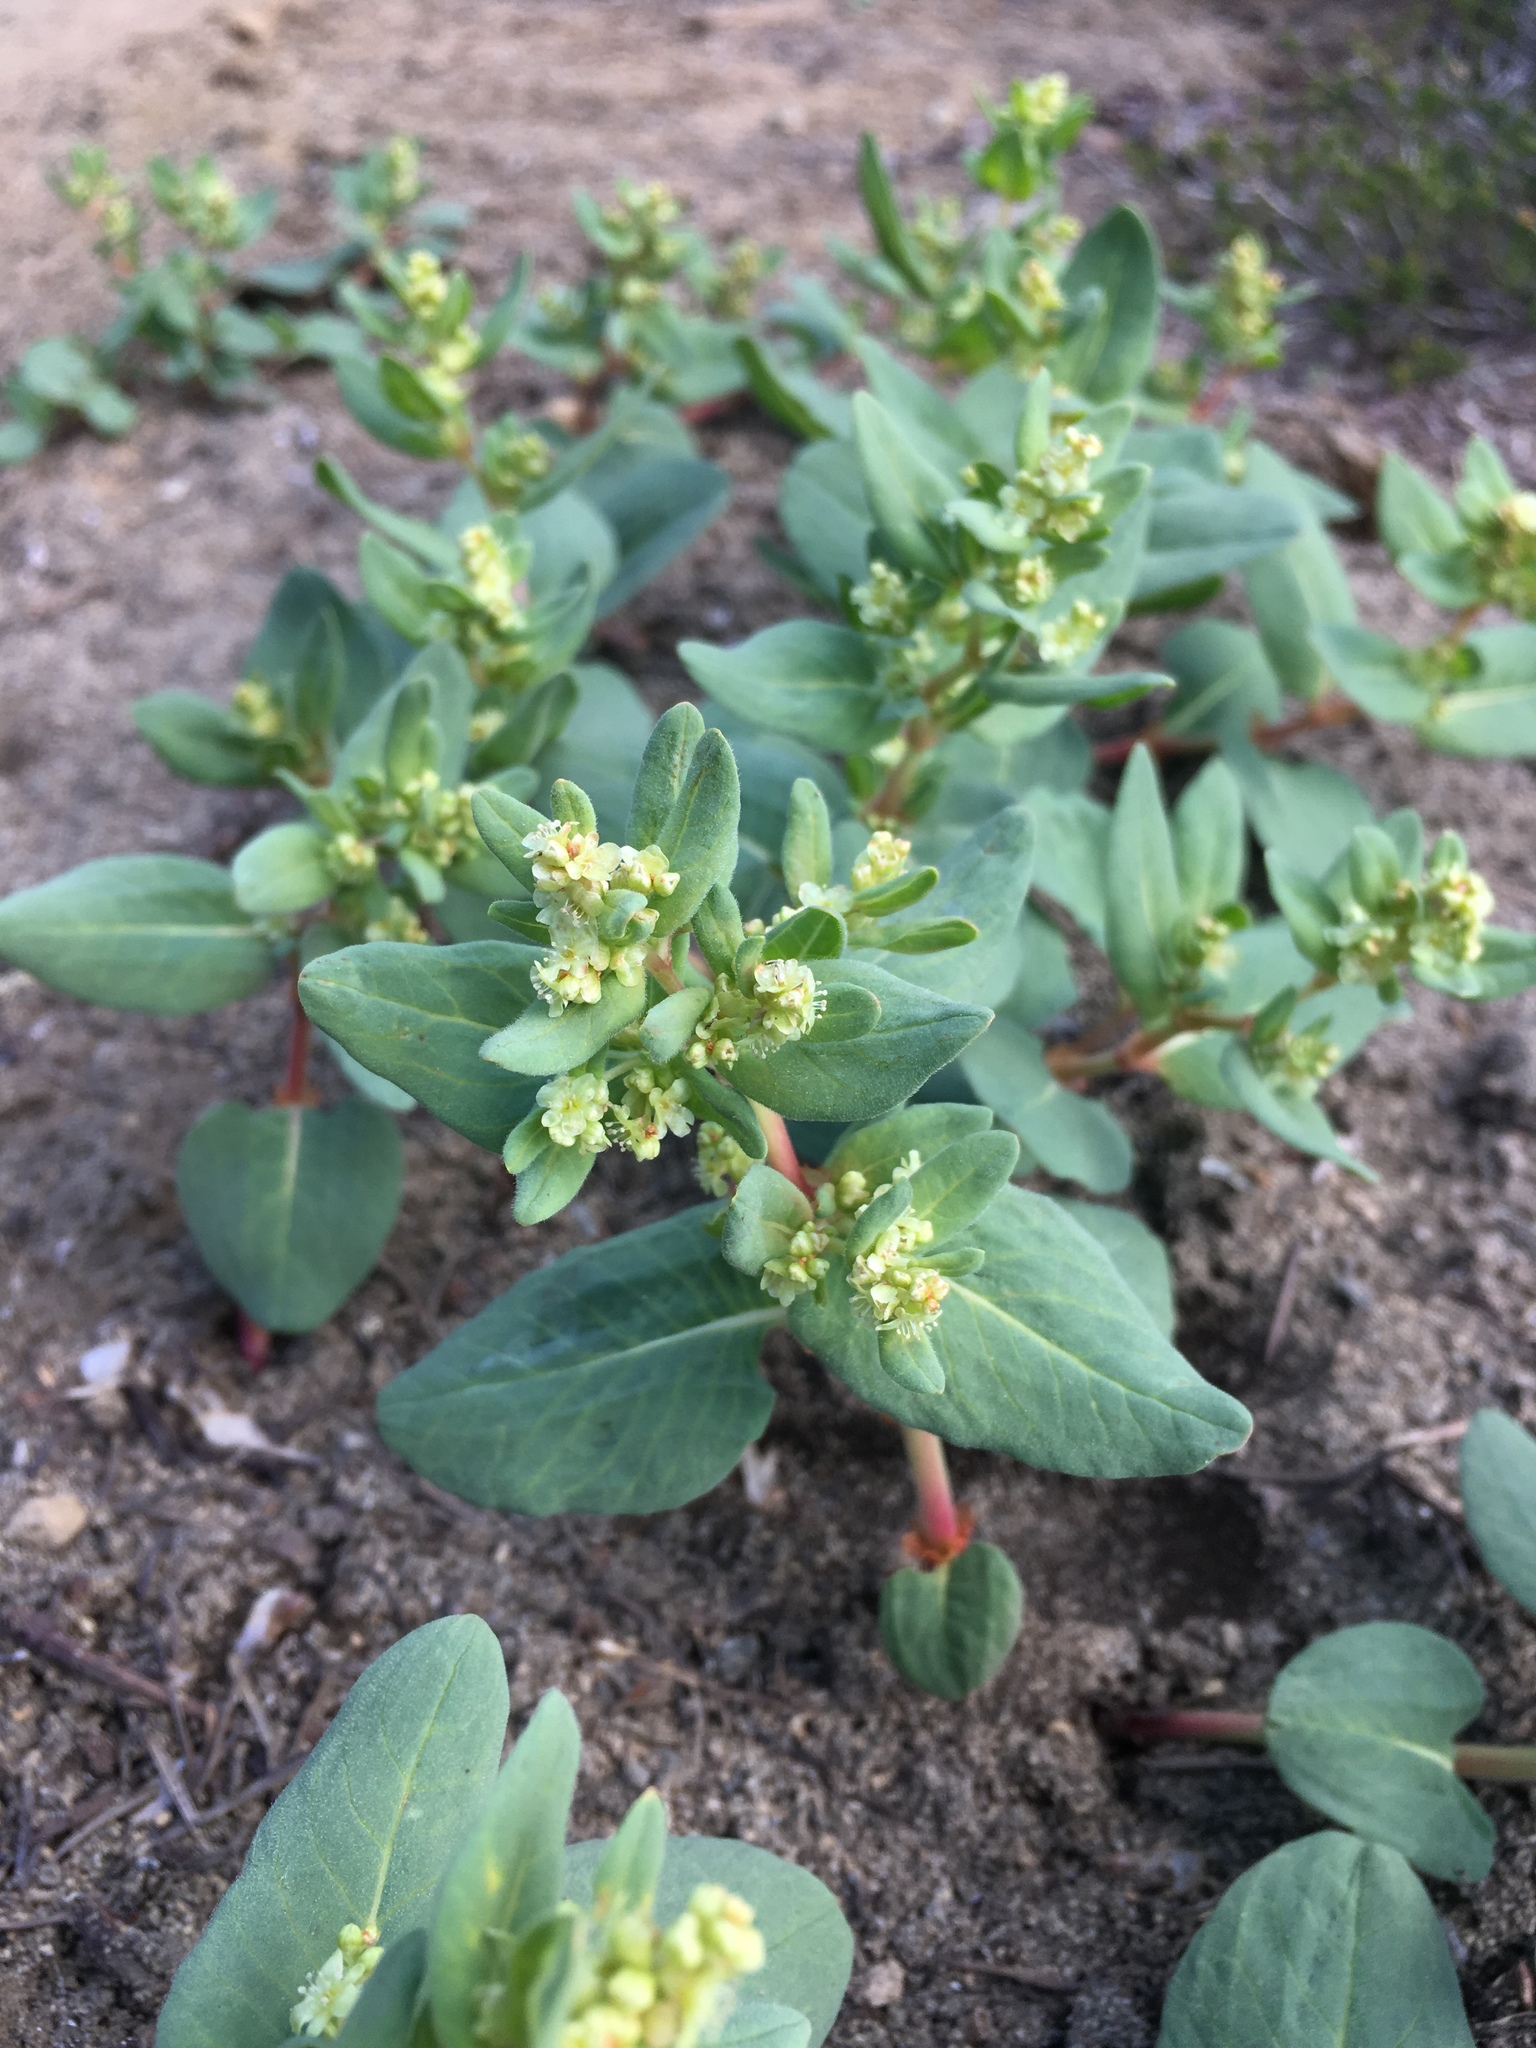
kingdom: Plantae
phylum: Tracheophyta
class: Magnoliopsida
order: Caryophyllales
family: Polygonaceae
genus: Koenigia
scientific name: Koenigia davisiae
